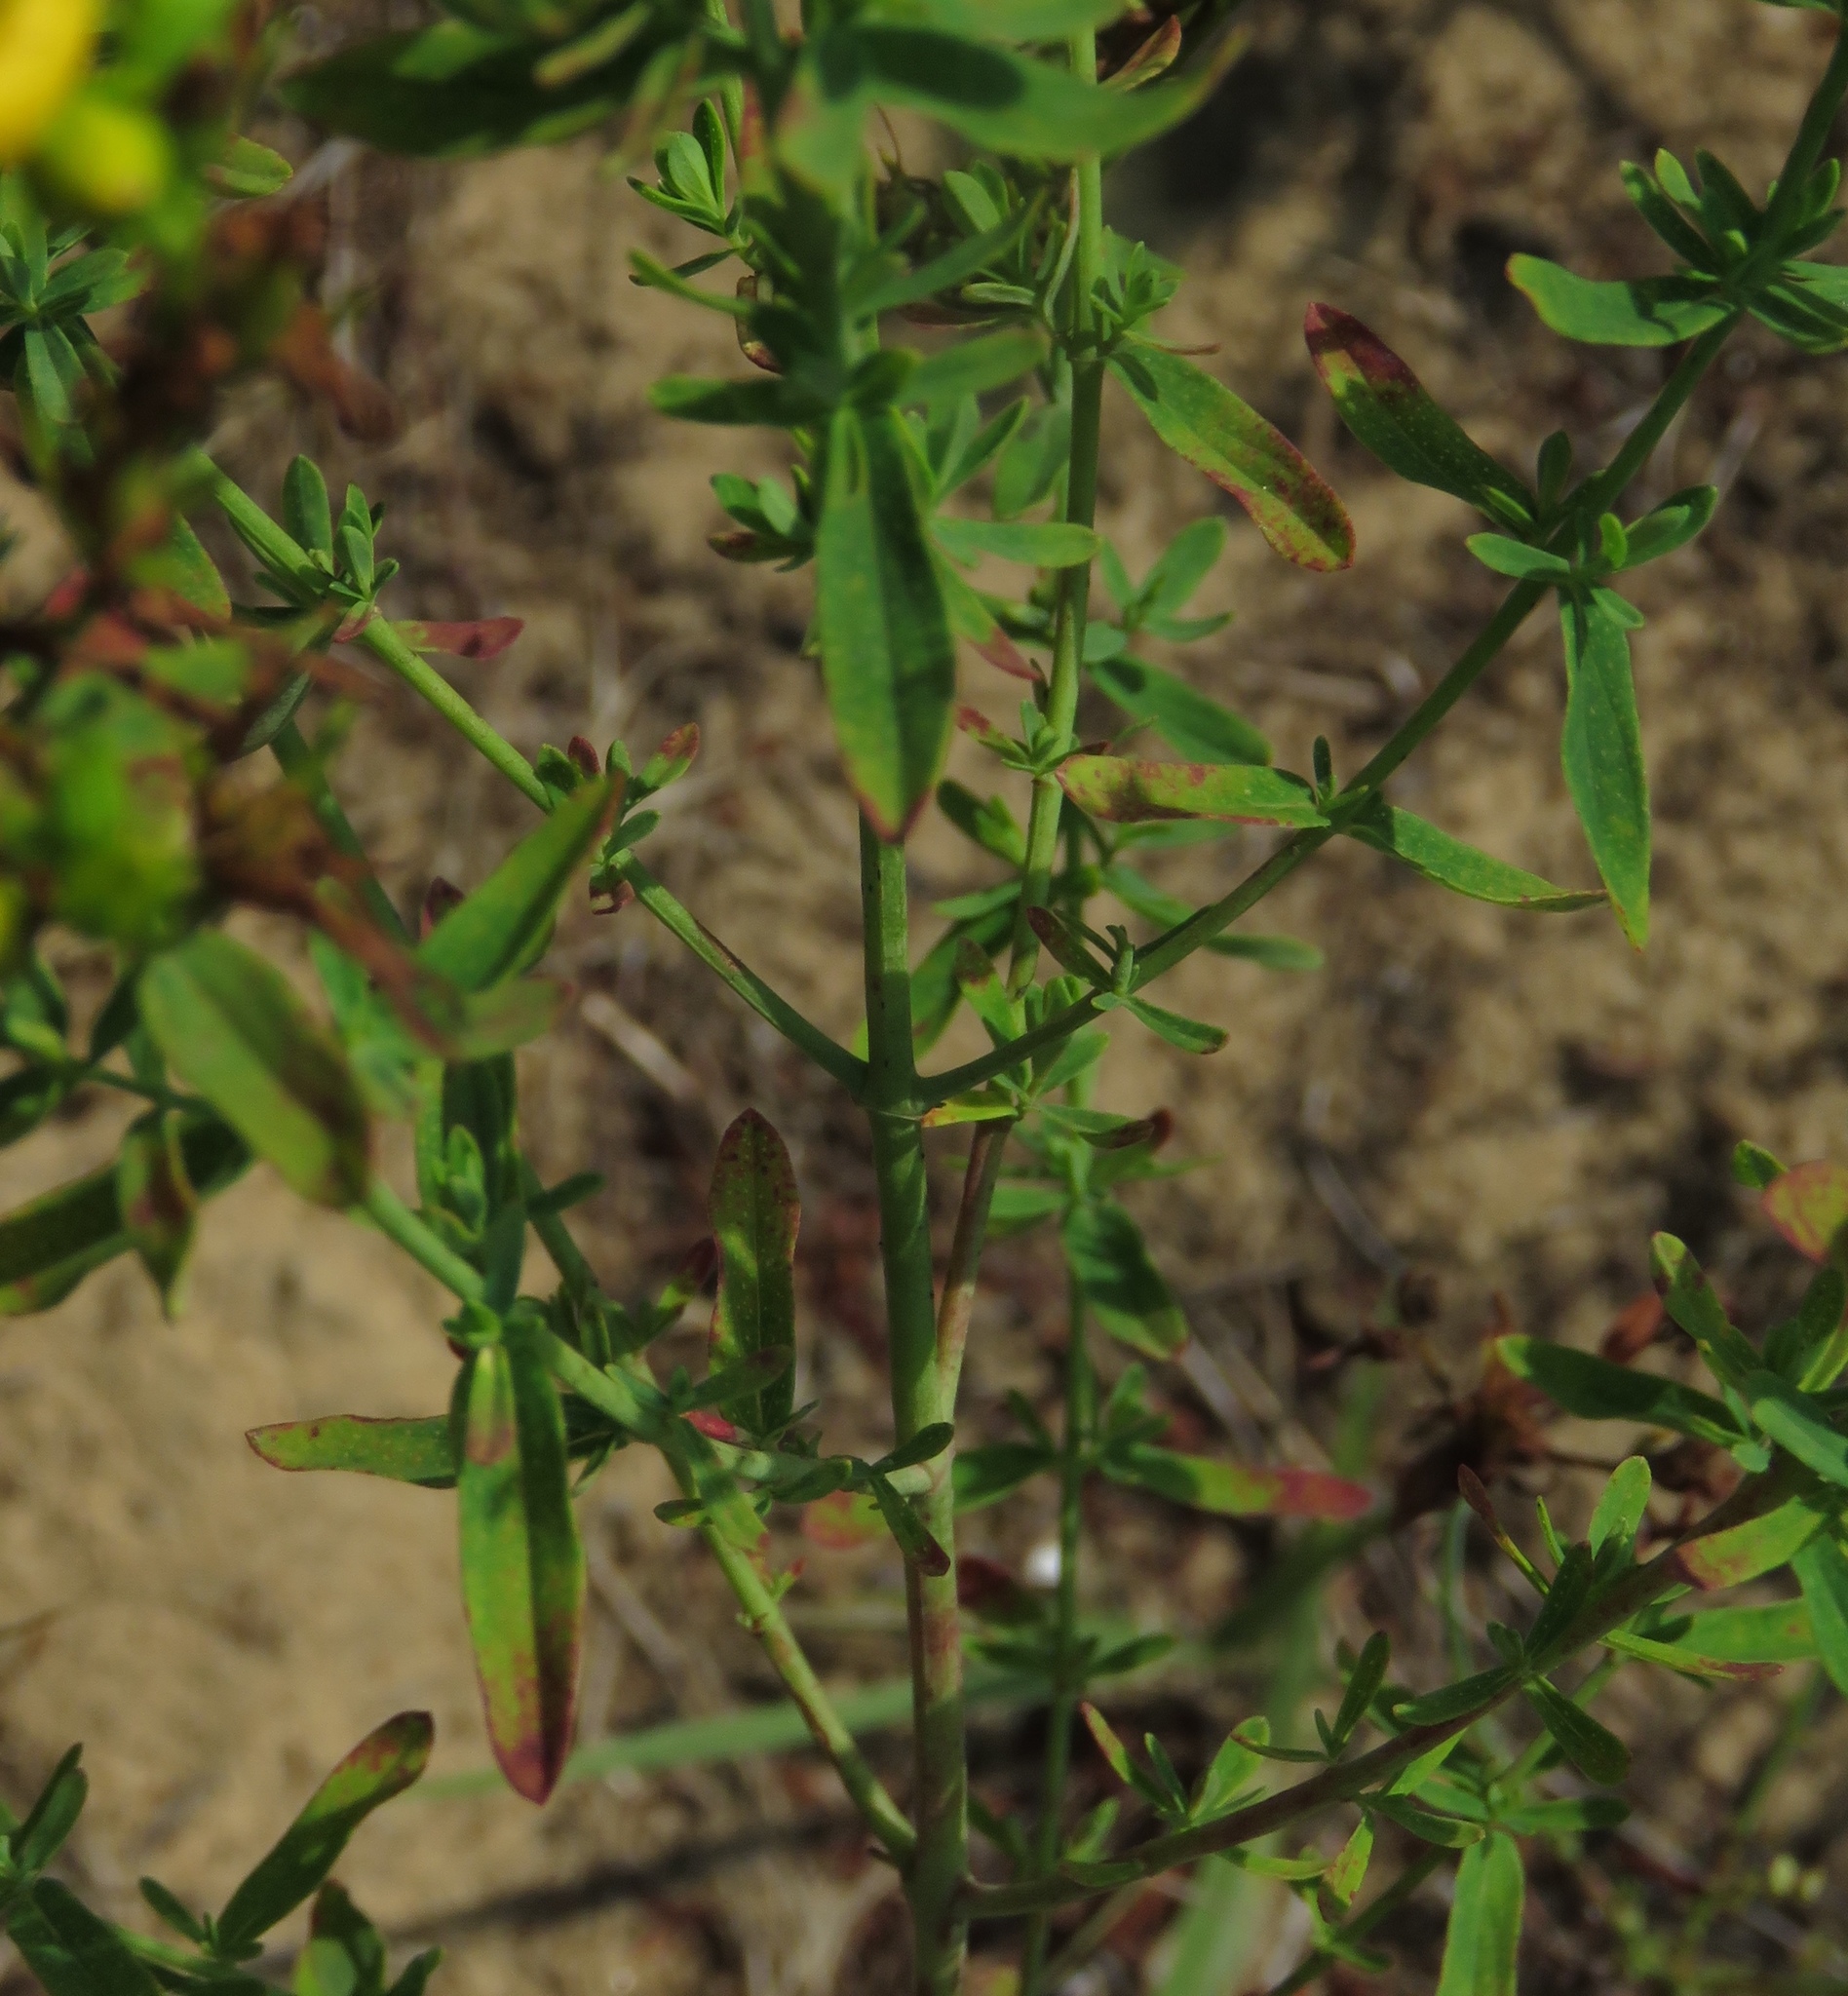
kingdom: Plantae
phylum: Tracheophyta
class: Magnoliopsida
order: Malpighiales
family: Hypericaceae
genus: Hypericum
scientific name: Hypericum perforatum
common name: Common st. johnswort
